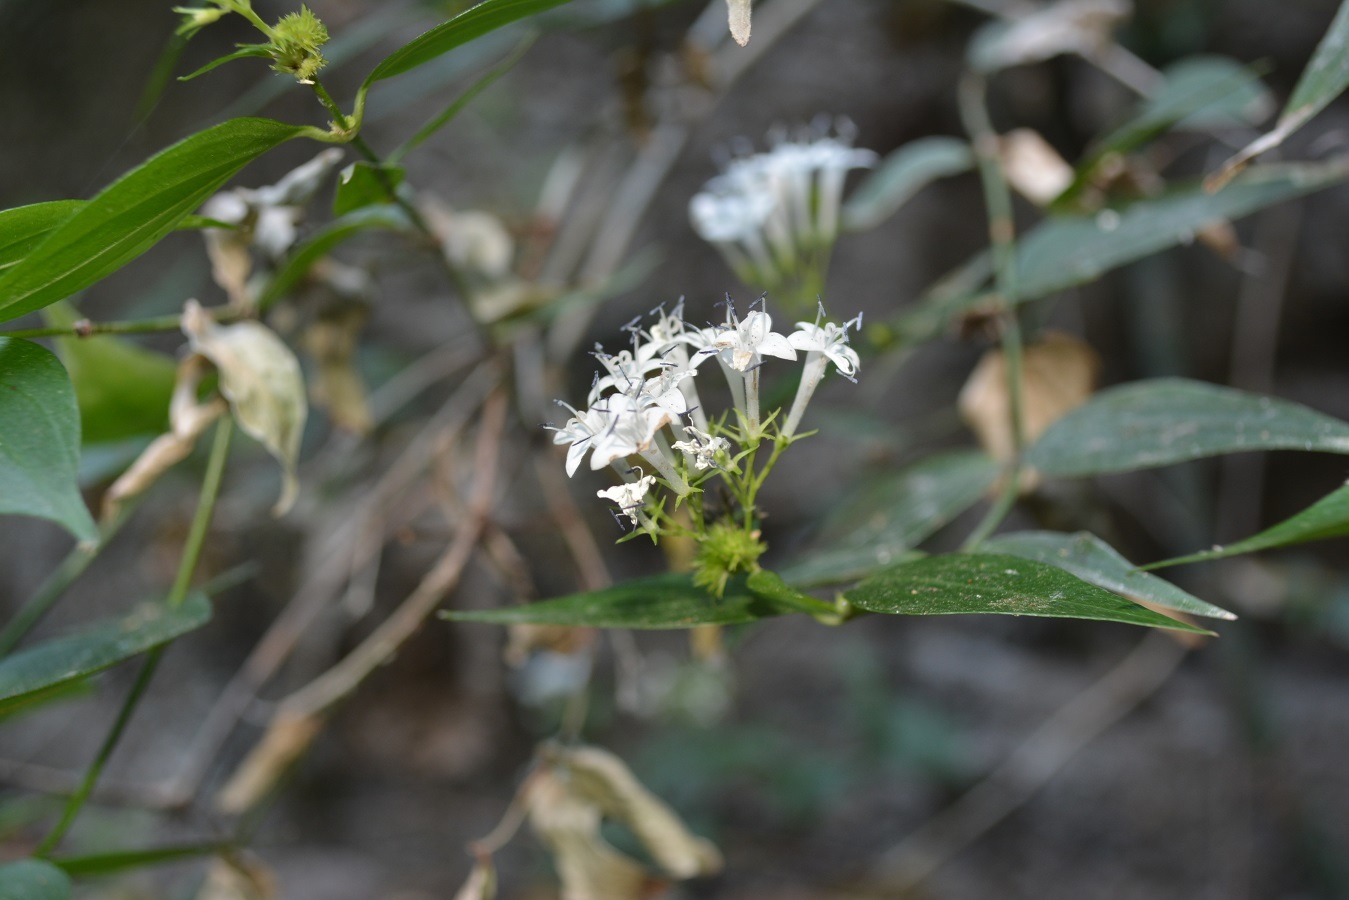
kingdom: Plantae
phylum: Tracheophyta
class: Magnoliopsida
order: Gentianales
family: Rubiaceae
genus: Bouvardia
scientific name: Bouvardia quinquenervata
